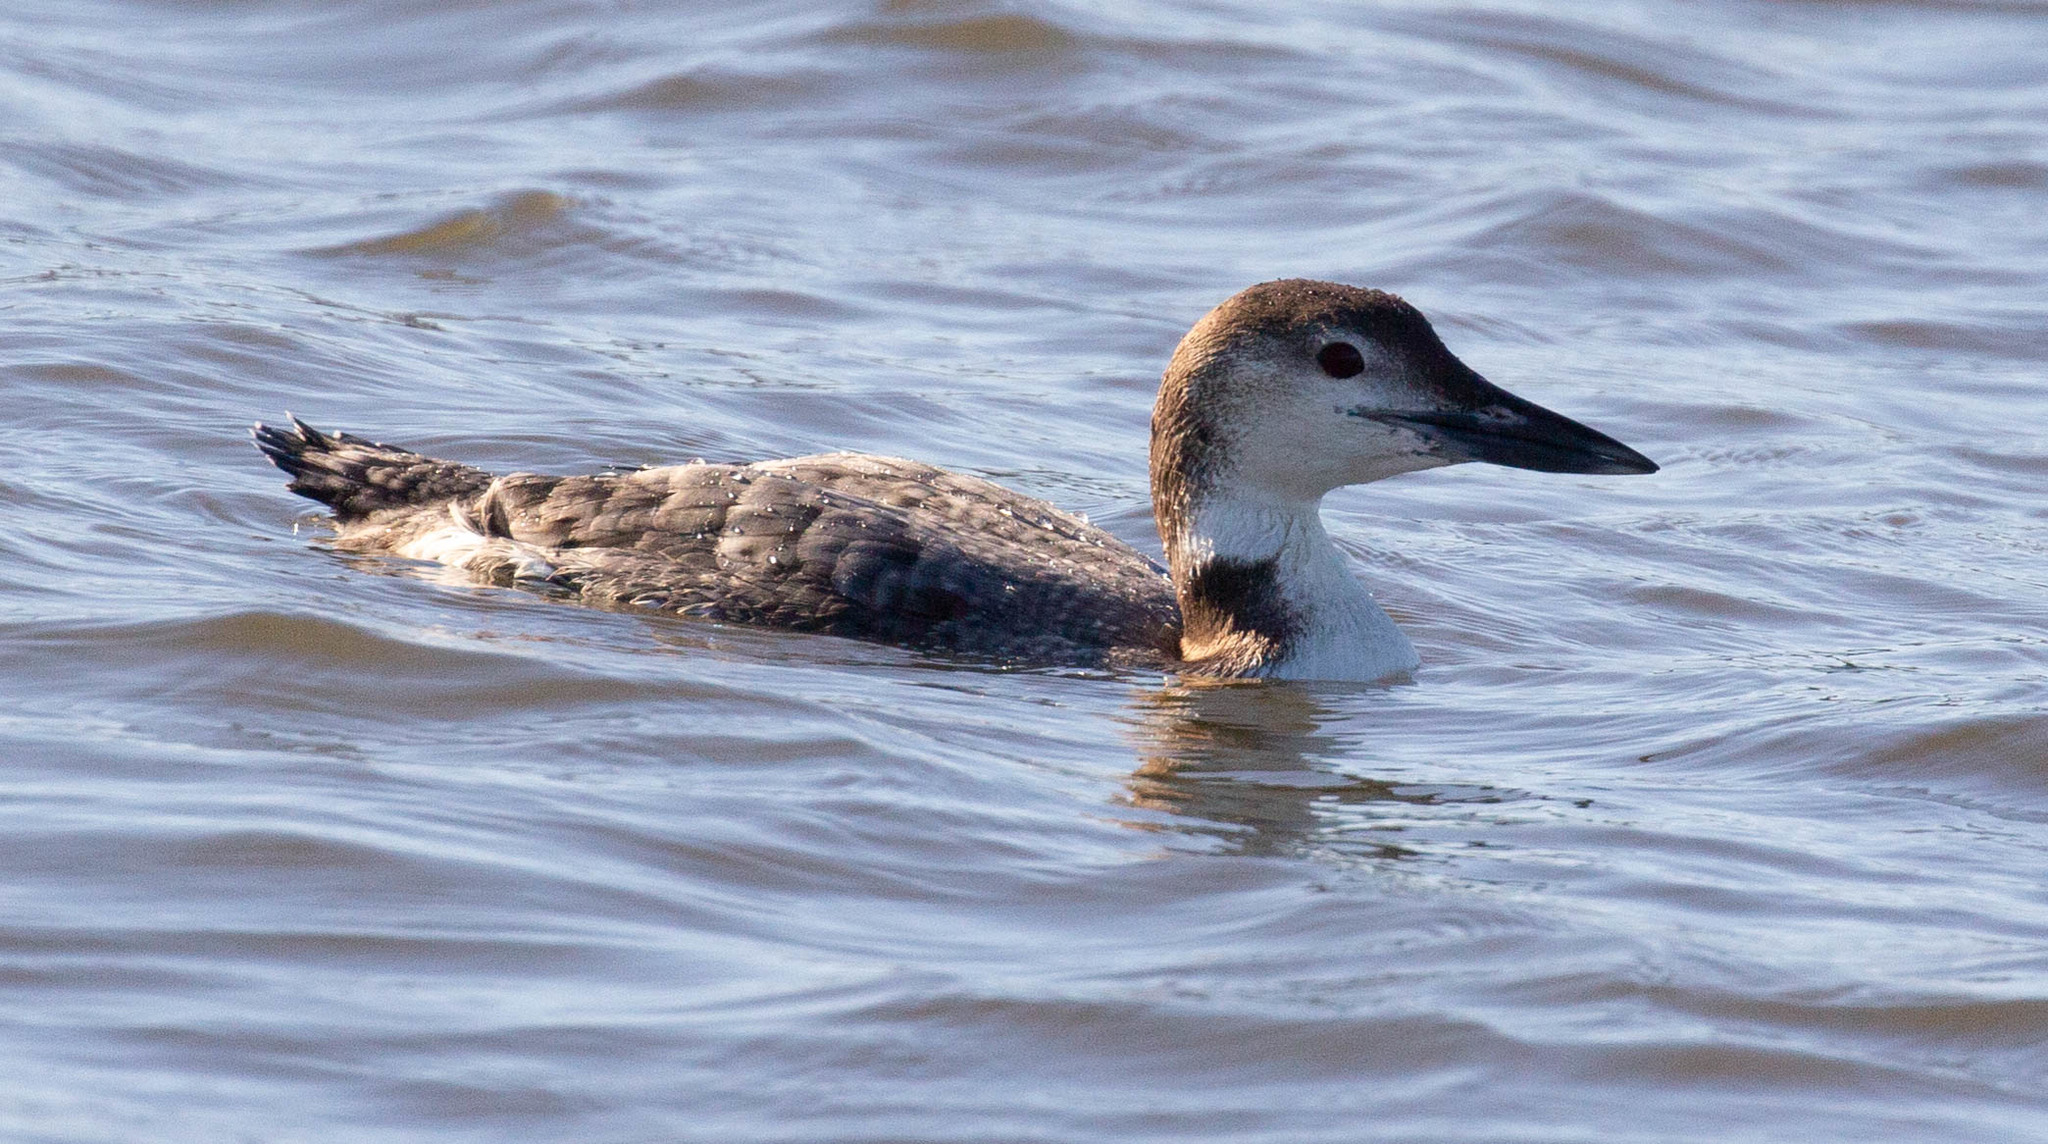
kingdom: Animalia
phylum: Chordata
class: Aves
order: Gaviiformes
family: Gaviidae
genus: Gavia
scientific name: Gavia immer
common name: Common loon
